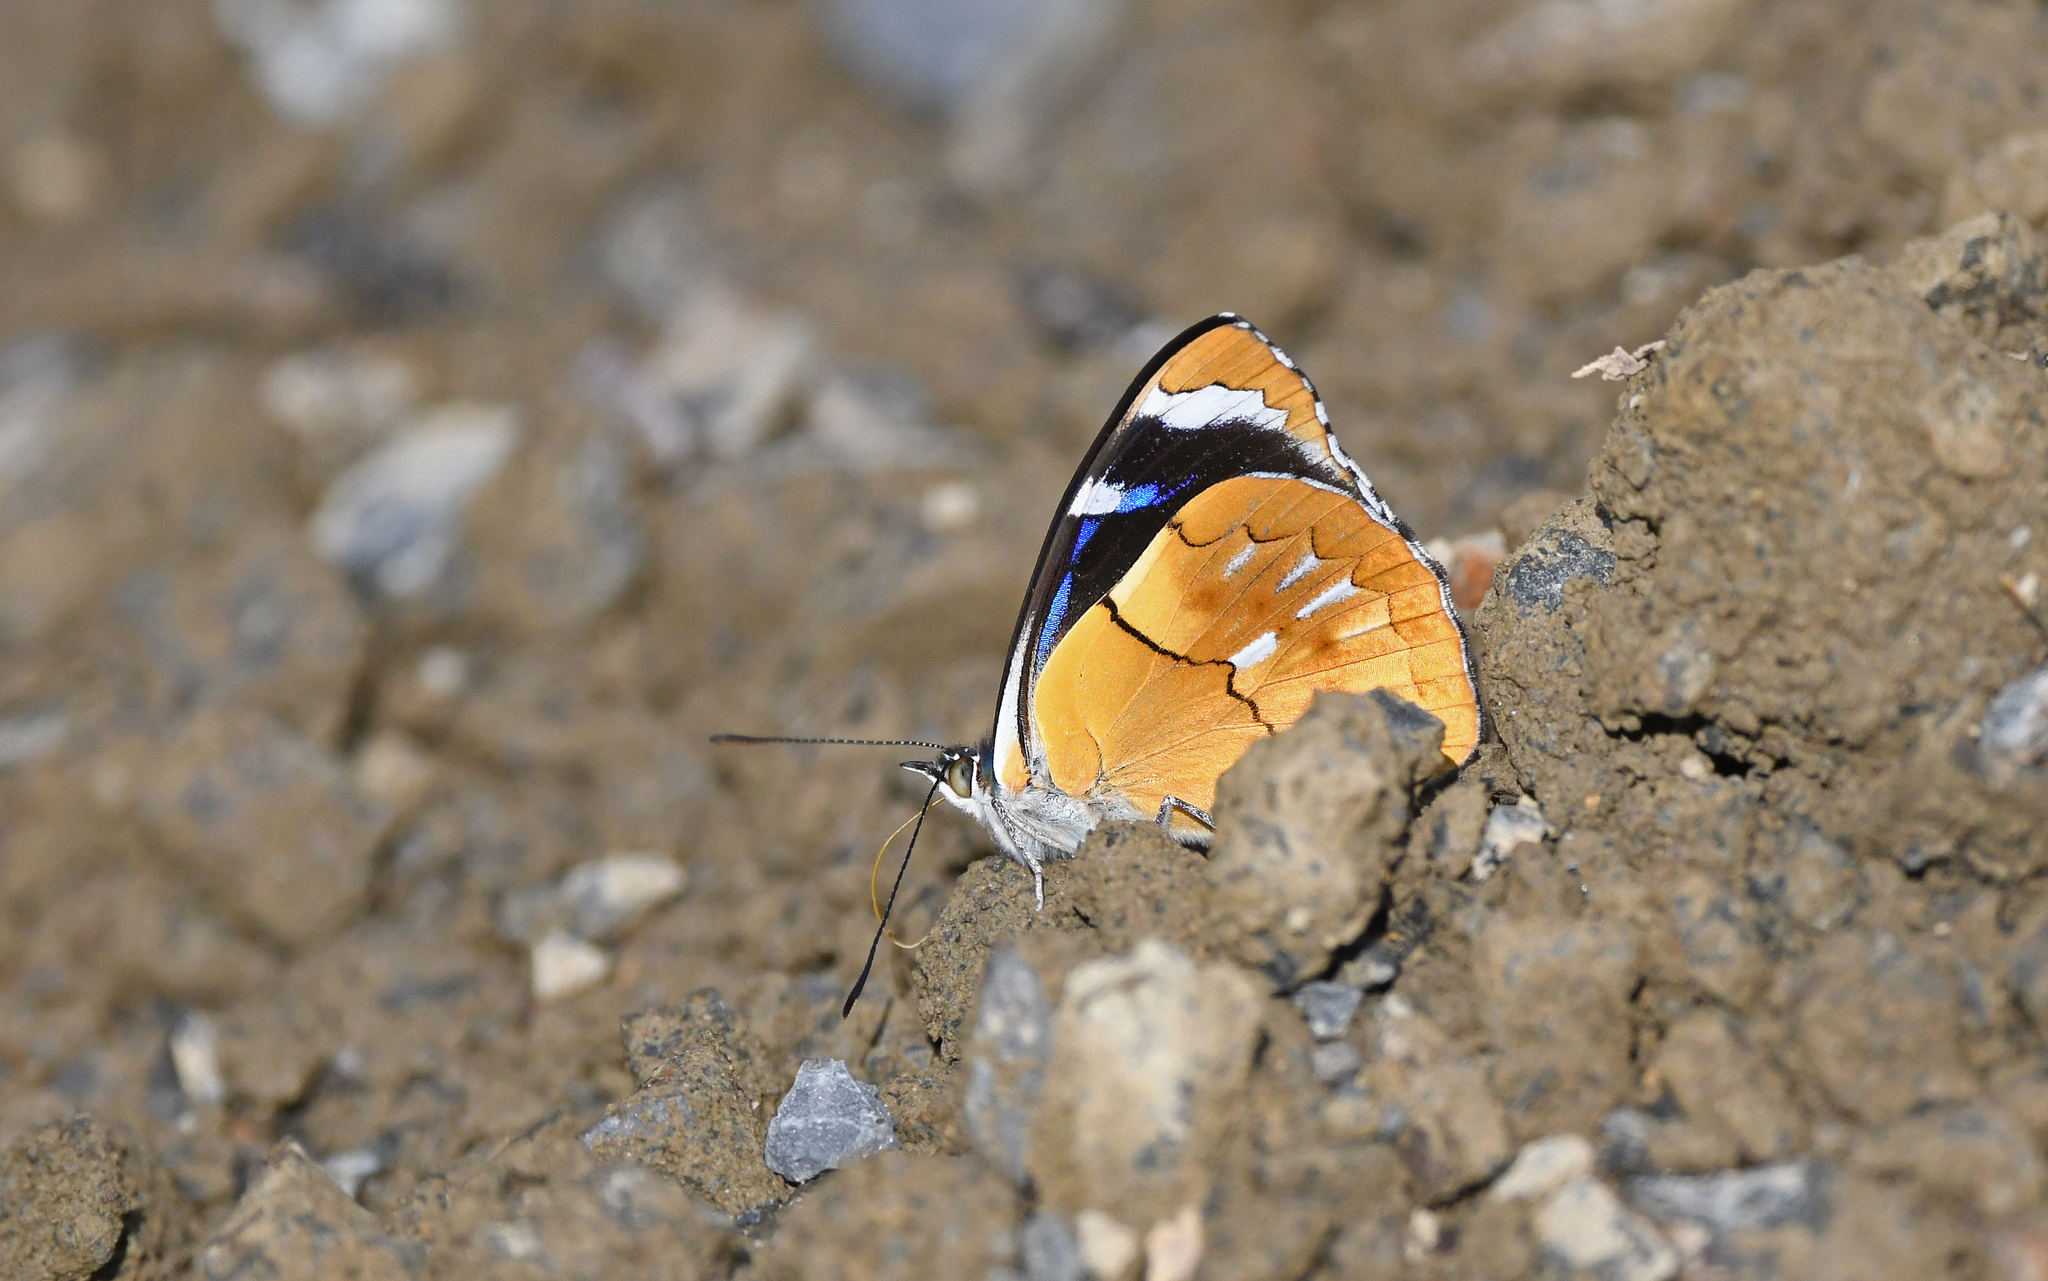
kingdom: Animalia
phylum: Arthropoda
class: Insecta
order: Lepidoptera
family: Nymphalidae
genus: Perisama
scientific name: Perisama philinus
